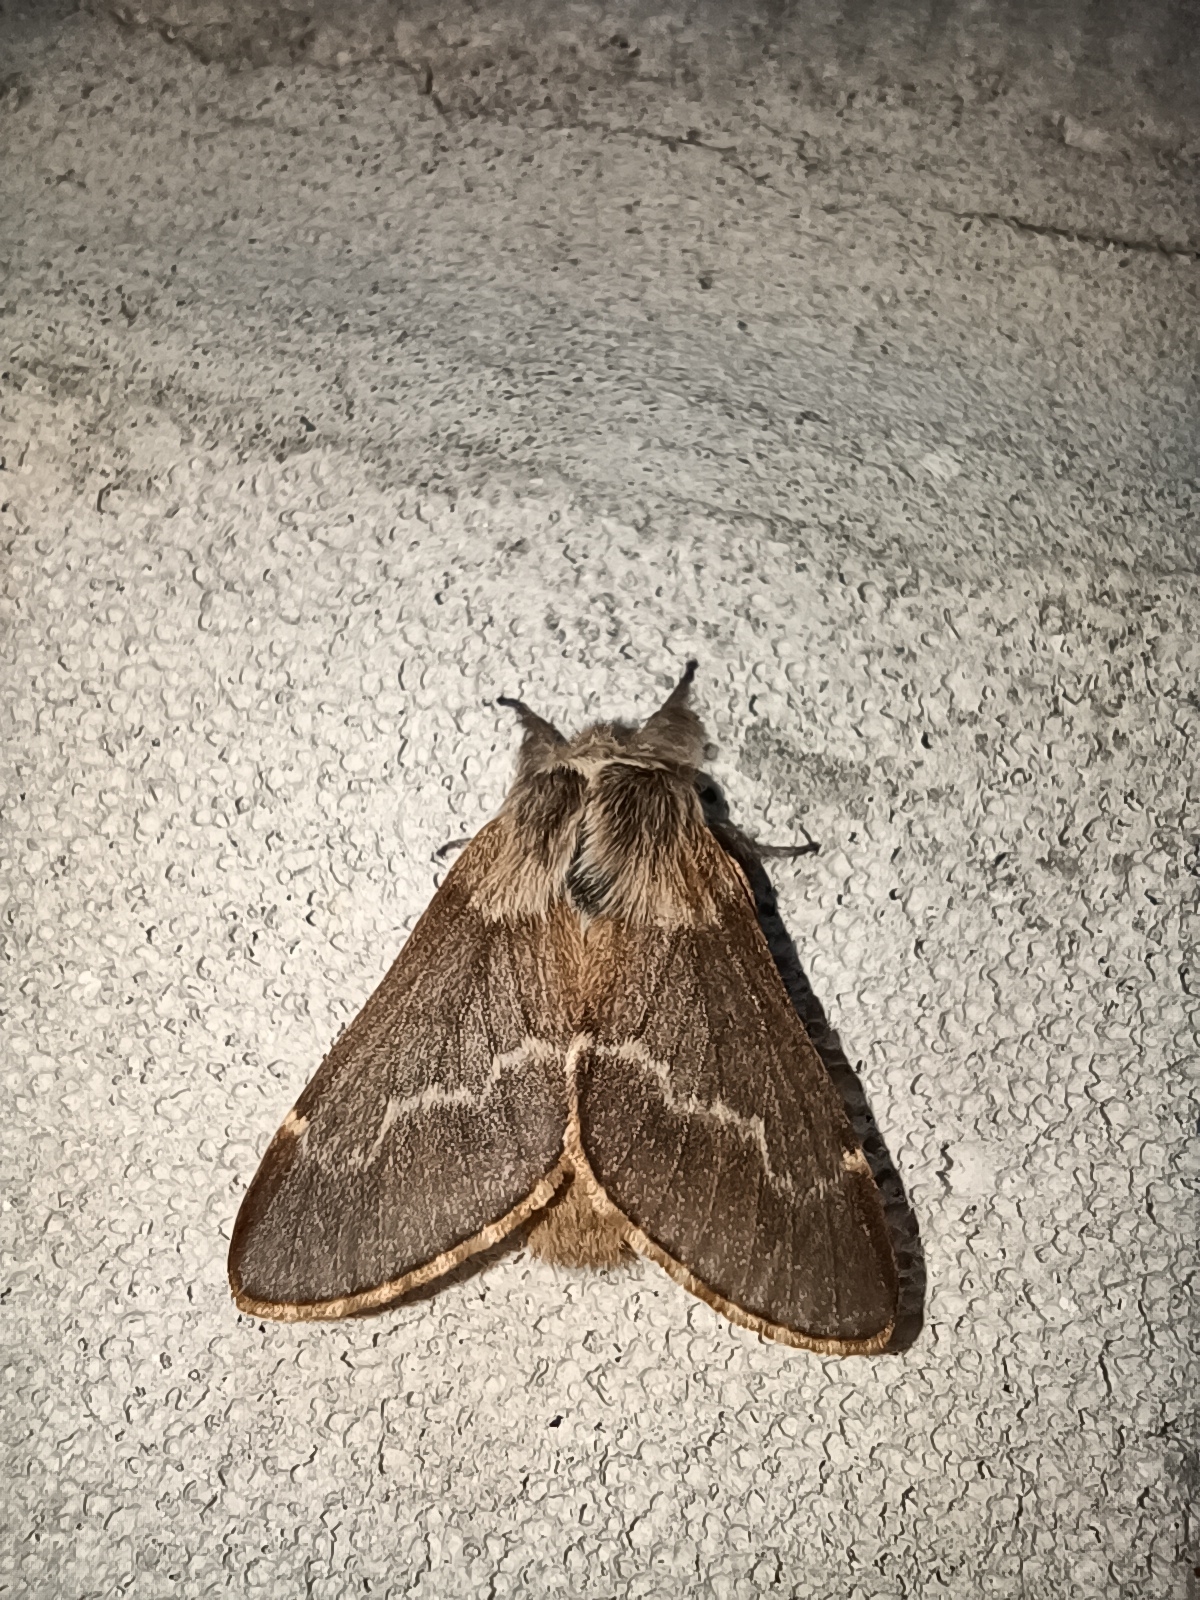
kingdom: Animalia
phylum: Arthropoda
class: Insecta
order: Lepidoptera
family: Lasiocampidae
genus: Poecilocampa
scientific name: Poecilocampa populi
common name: December moth
